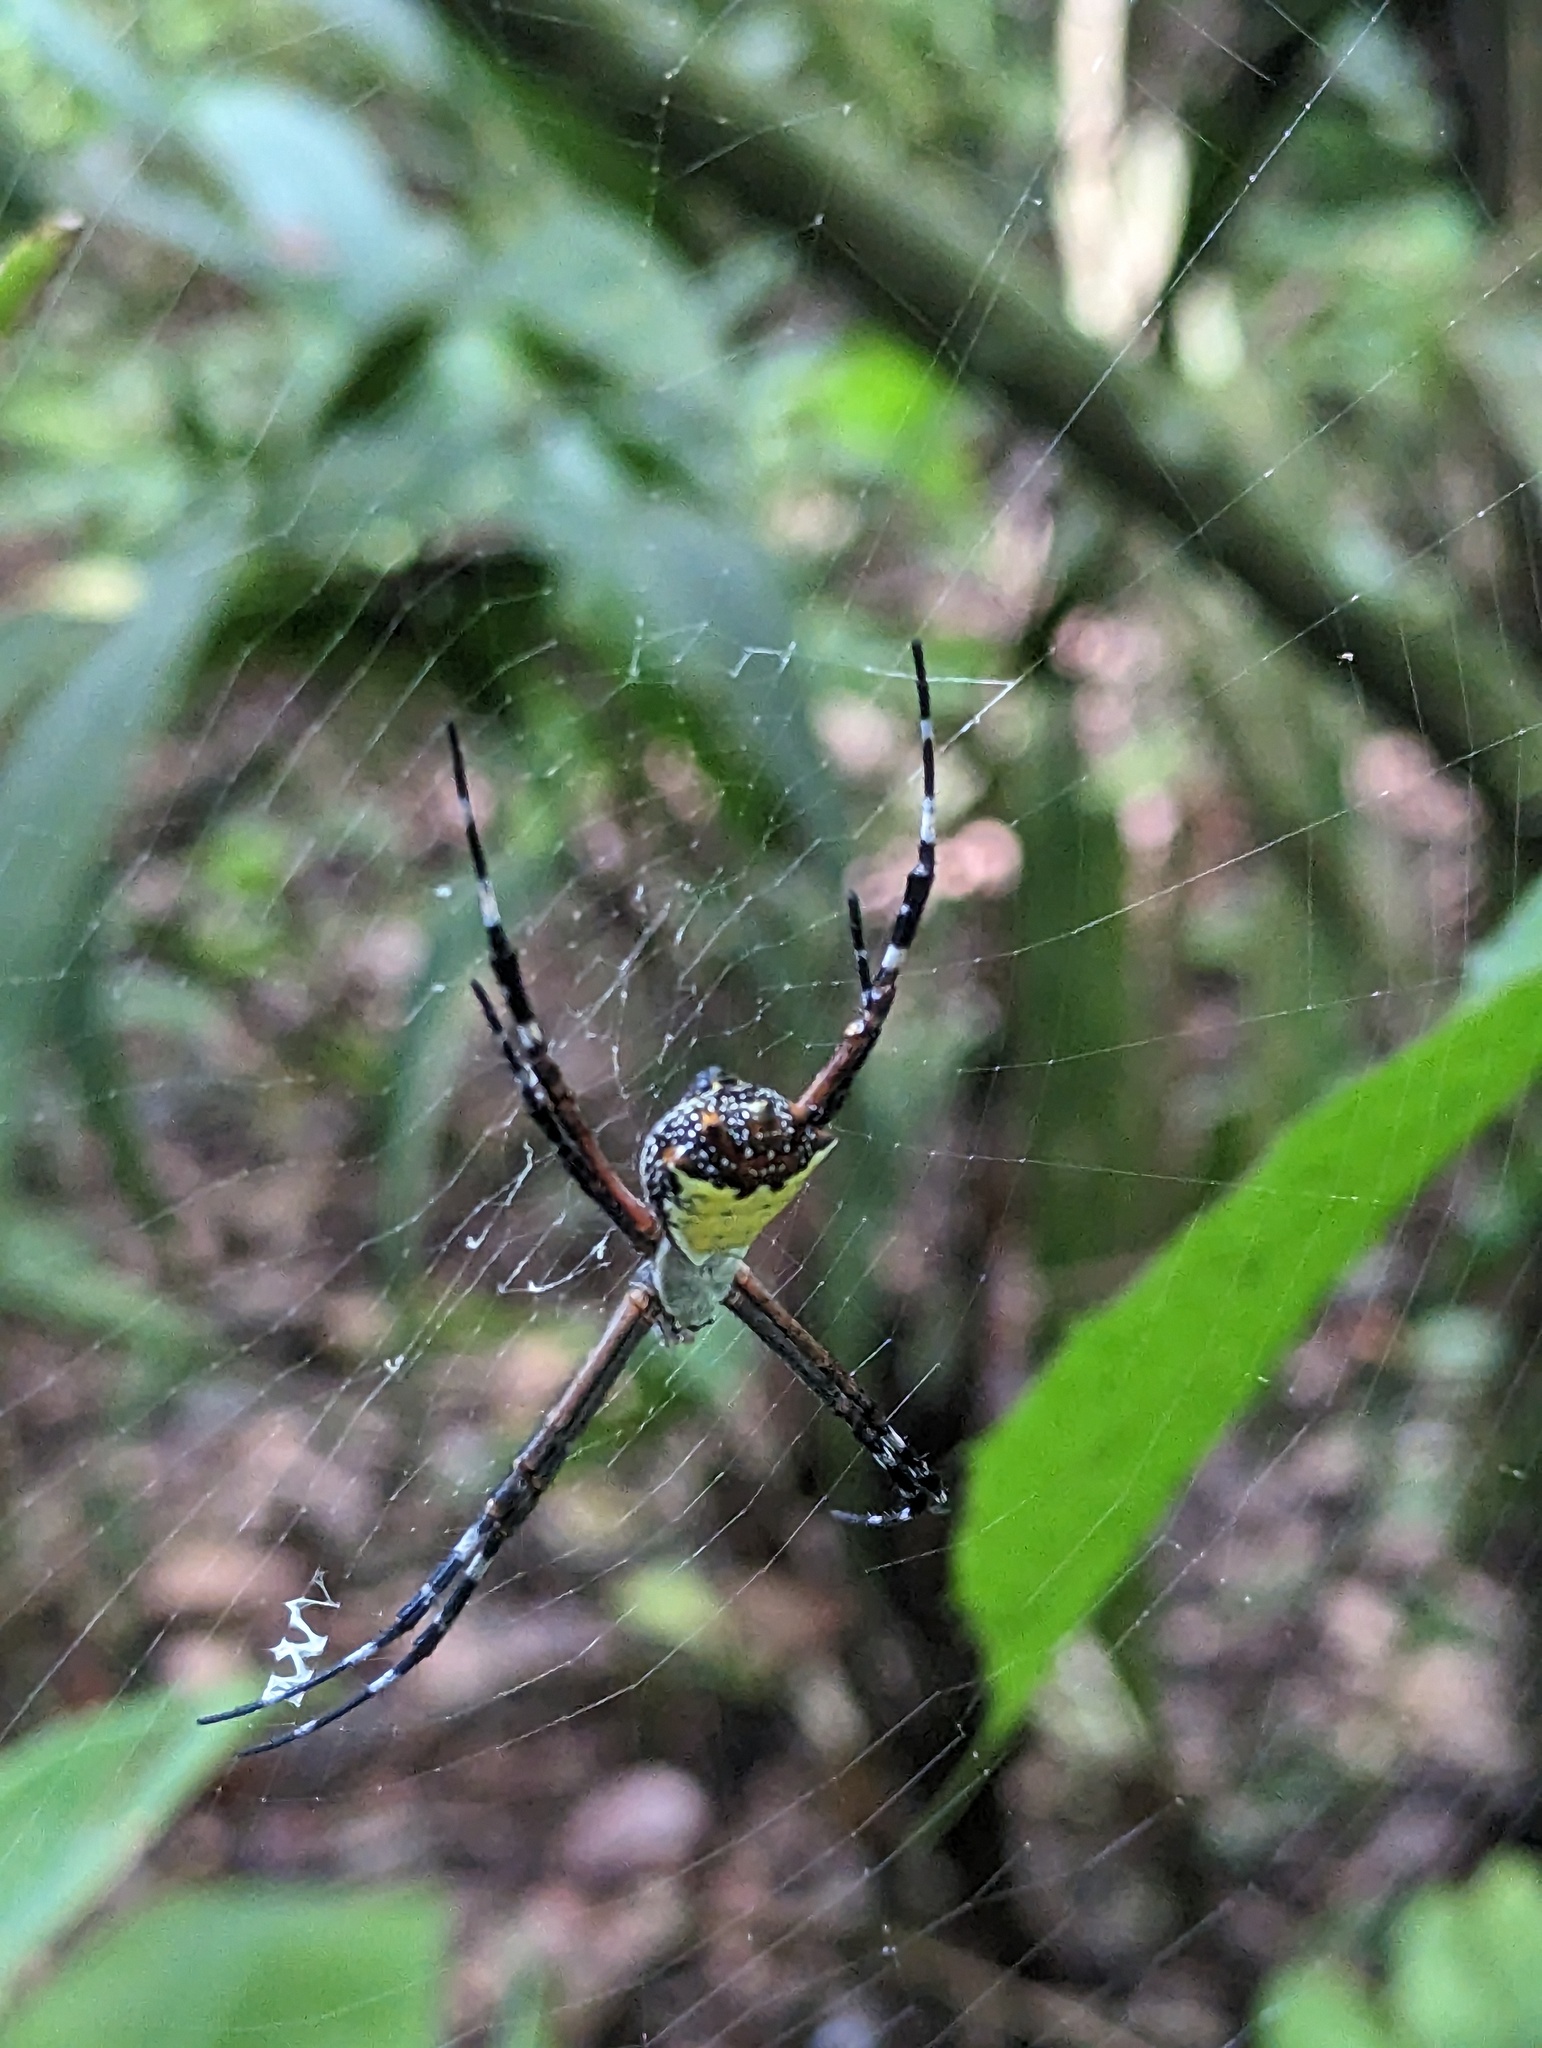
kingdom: Animalia
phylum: Arthropoda
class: Arachnida
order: Araneae
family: Araneidae
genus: Argiope
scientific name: Argiope submaronica
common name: Orb weavers
